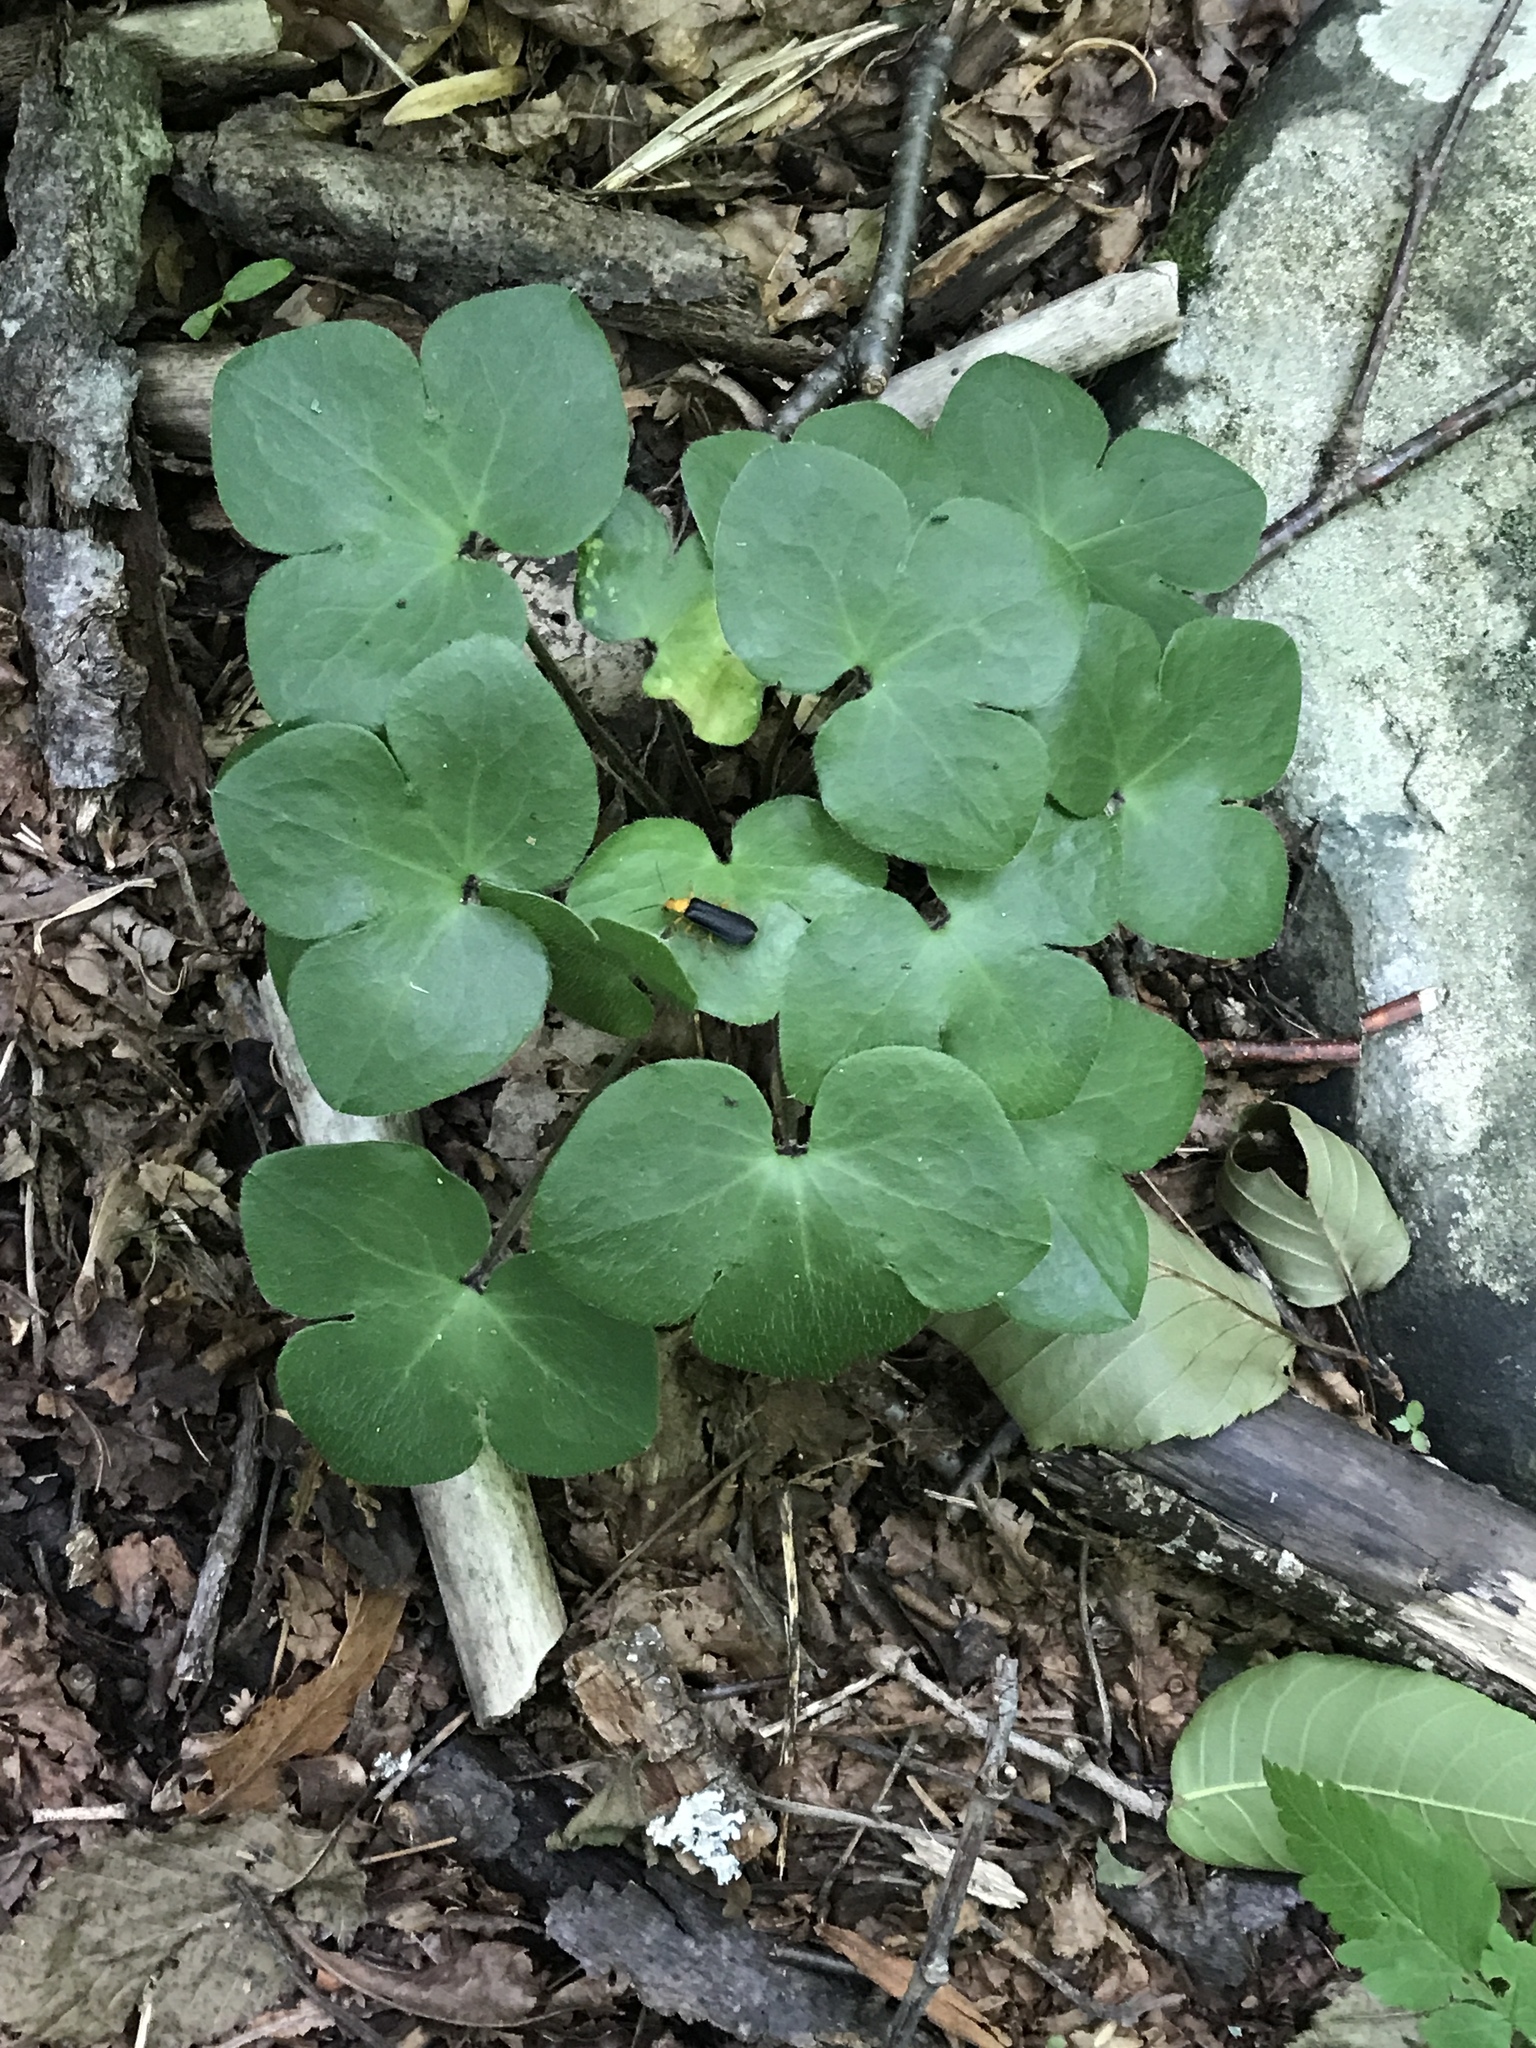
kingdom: Plantae
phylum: Tracheophyta
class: Magnoliopsida
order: Ranunculales
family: Ranunculaceae
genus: Hepatica
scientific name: Hepatica americana
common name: American hepatica
